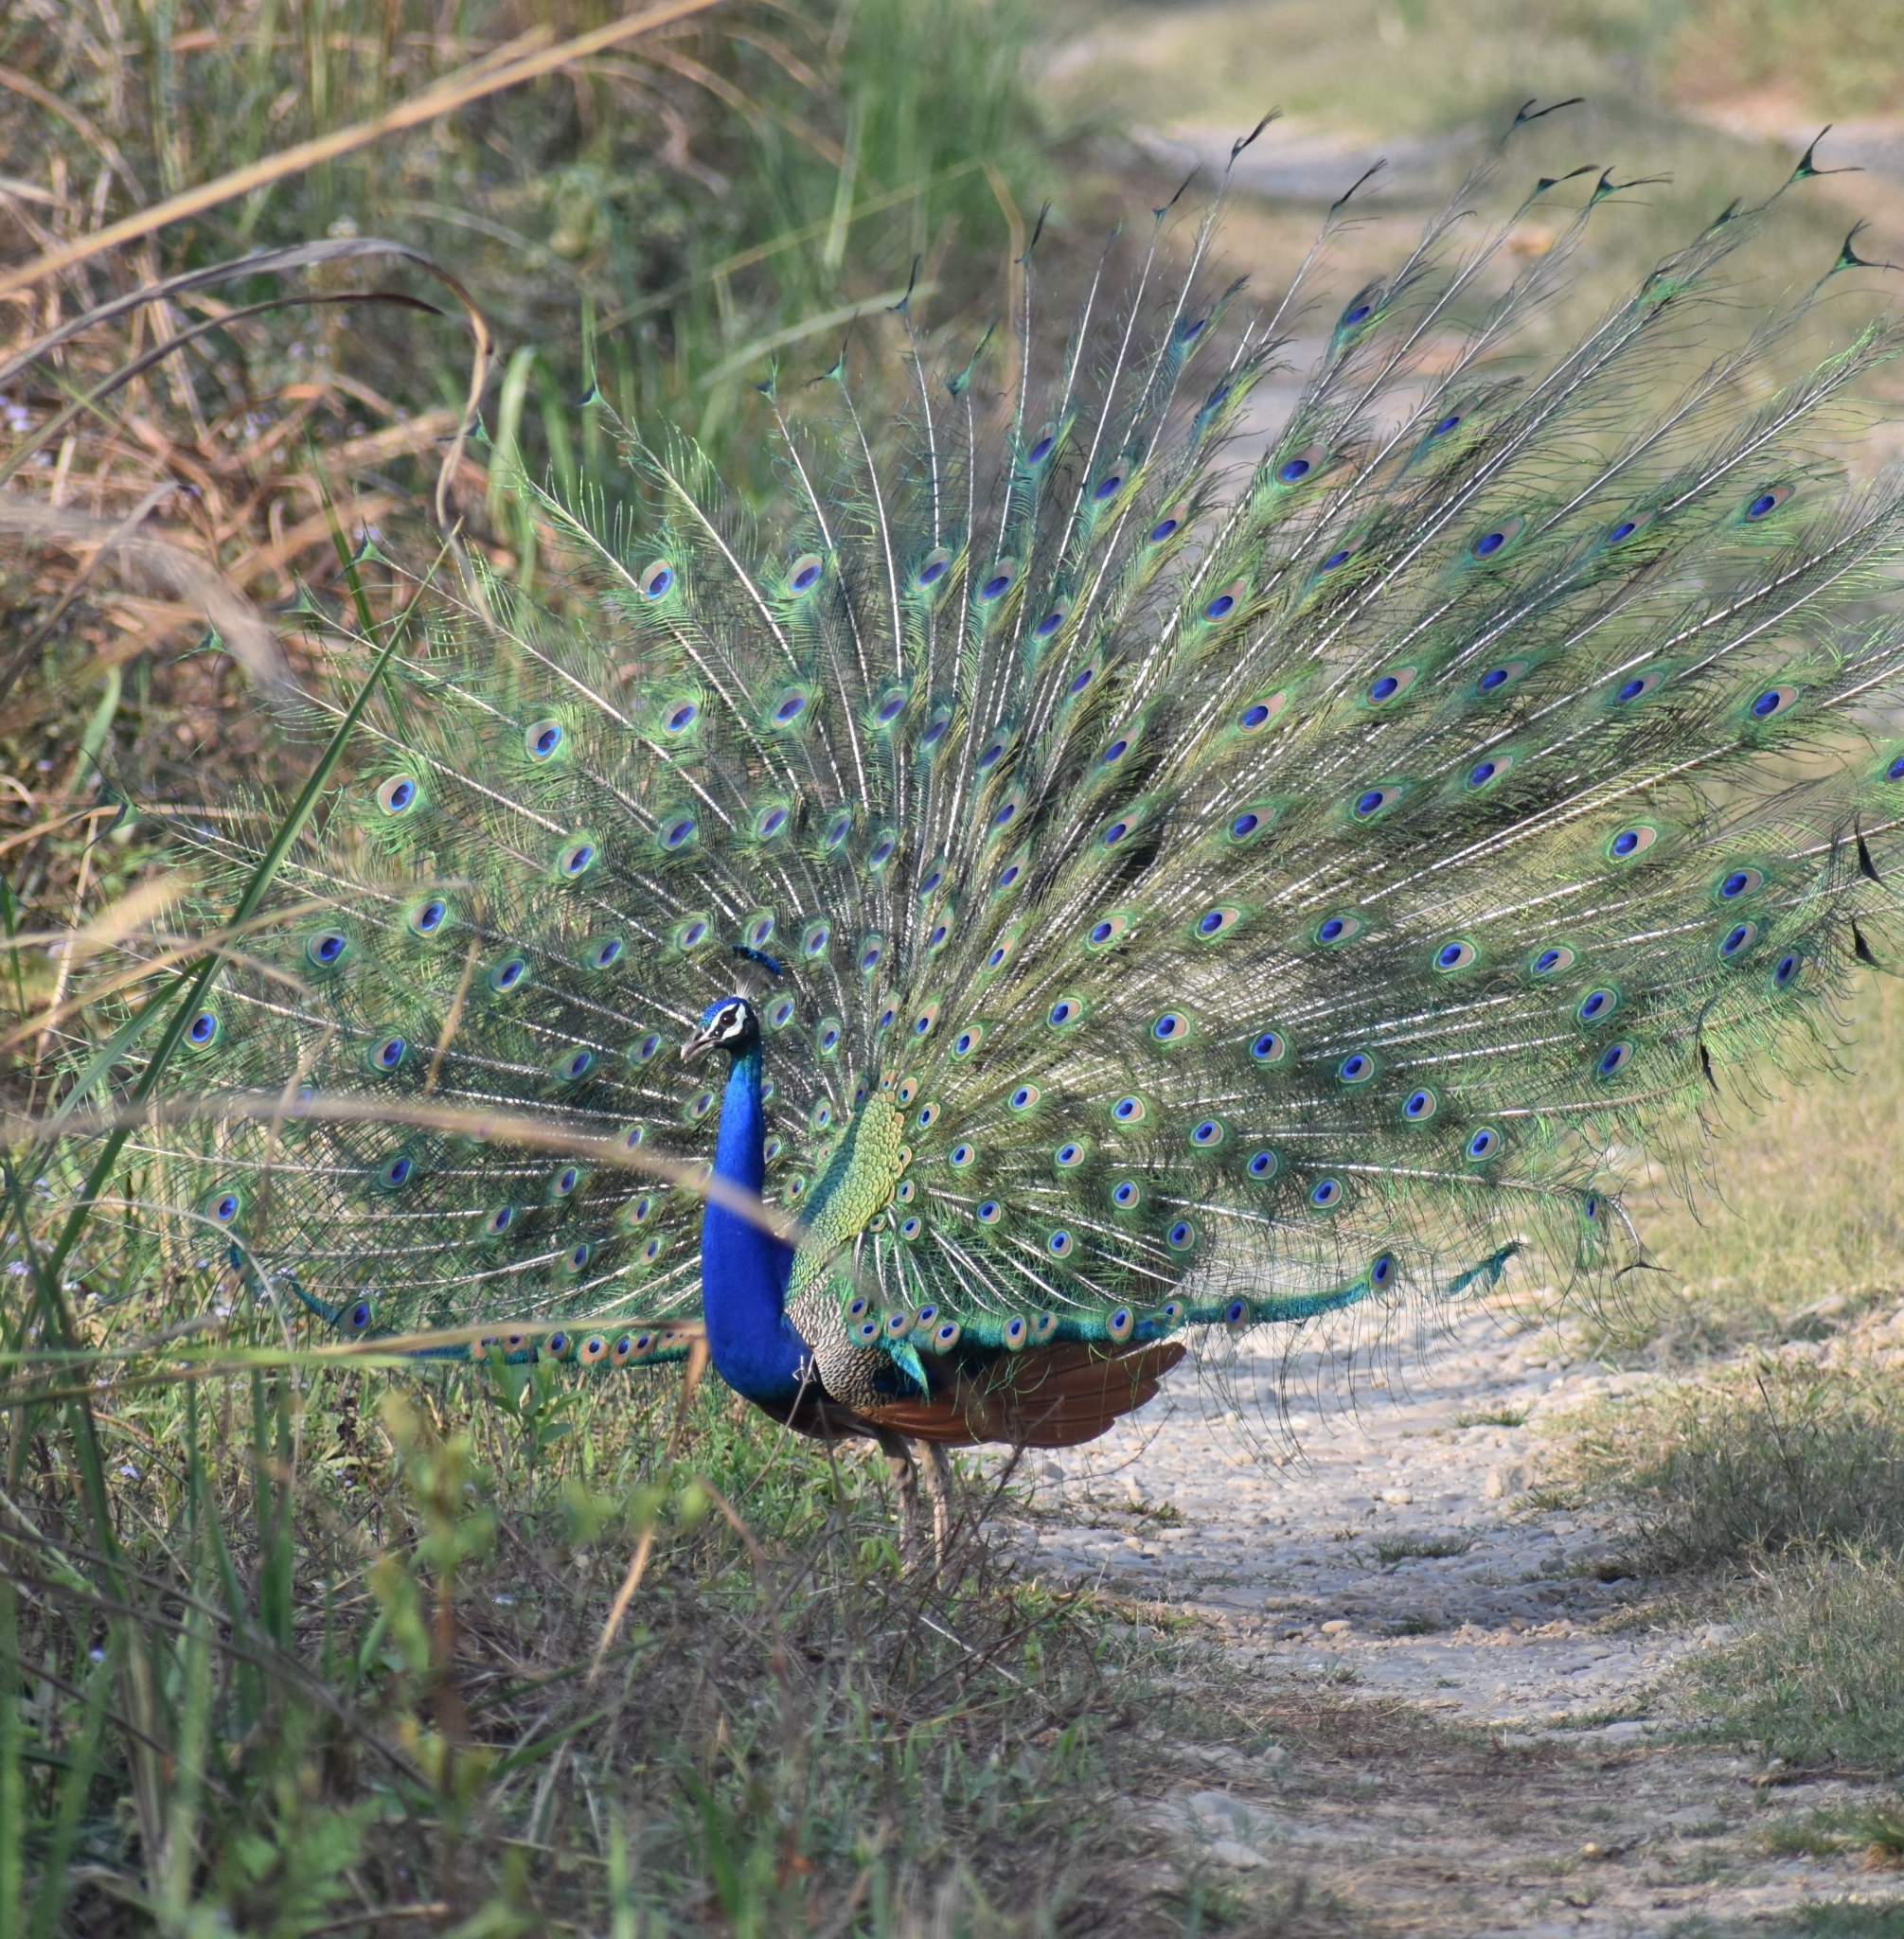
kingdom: Animalia
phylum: Chordata
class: Aves
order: Galliformes
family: Phasianidae
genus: Pavo
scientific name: Pavo cristatus
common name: Indian peafowl
